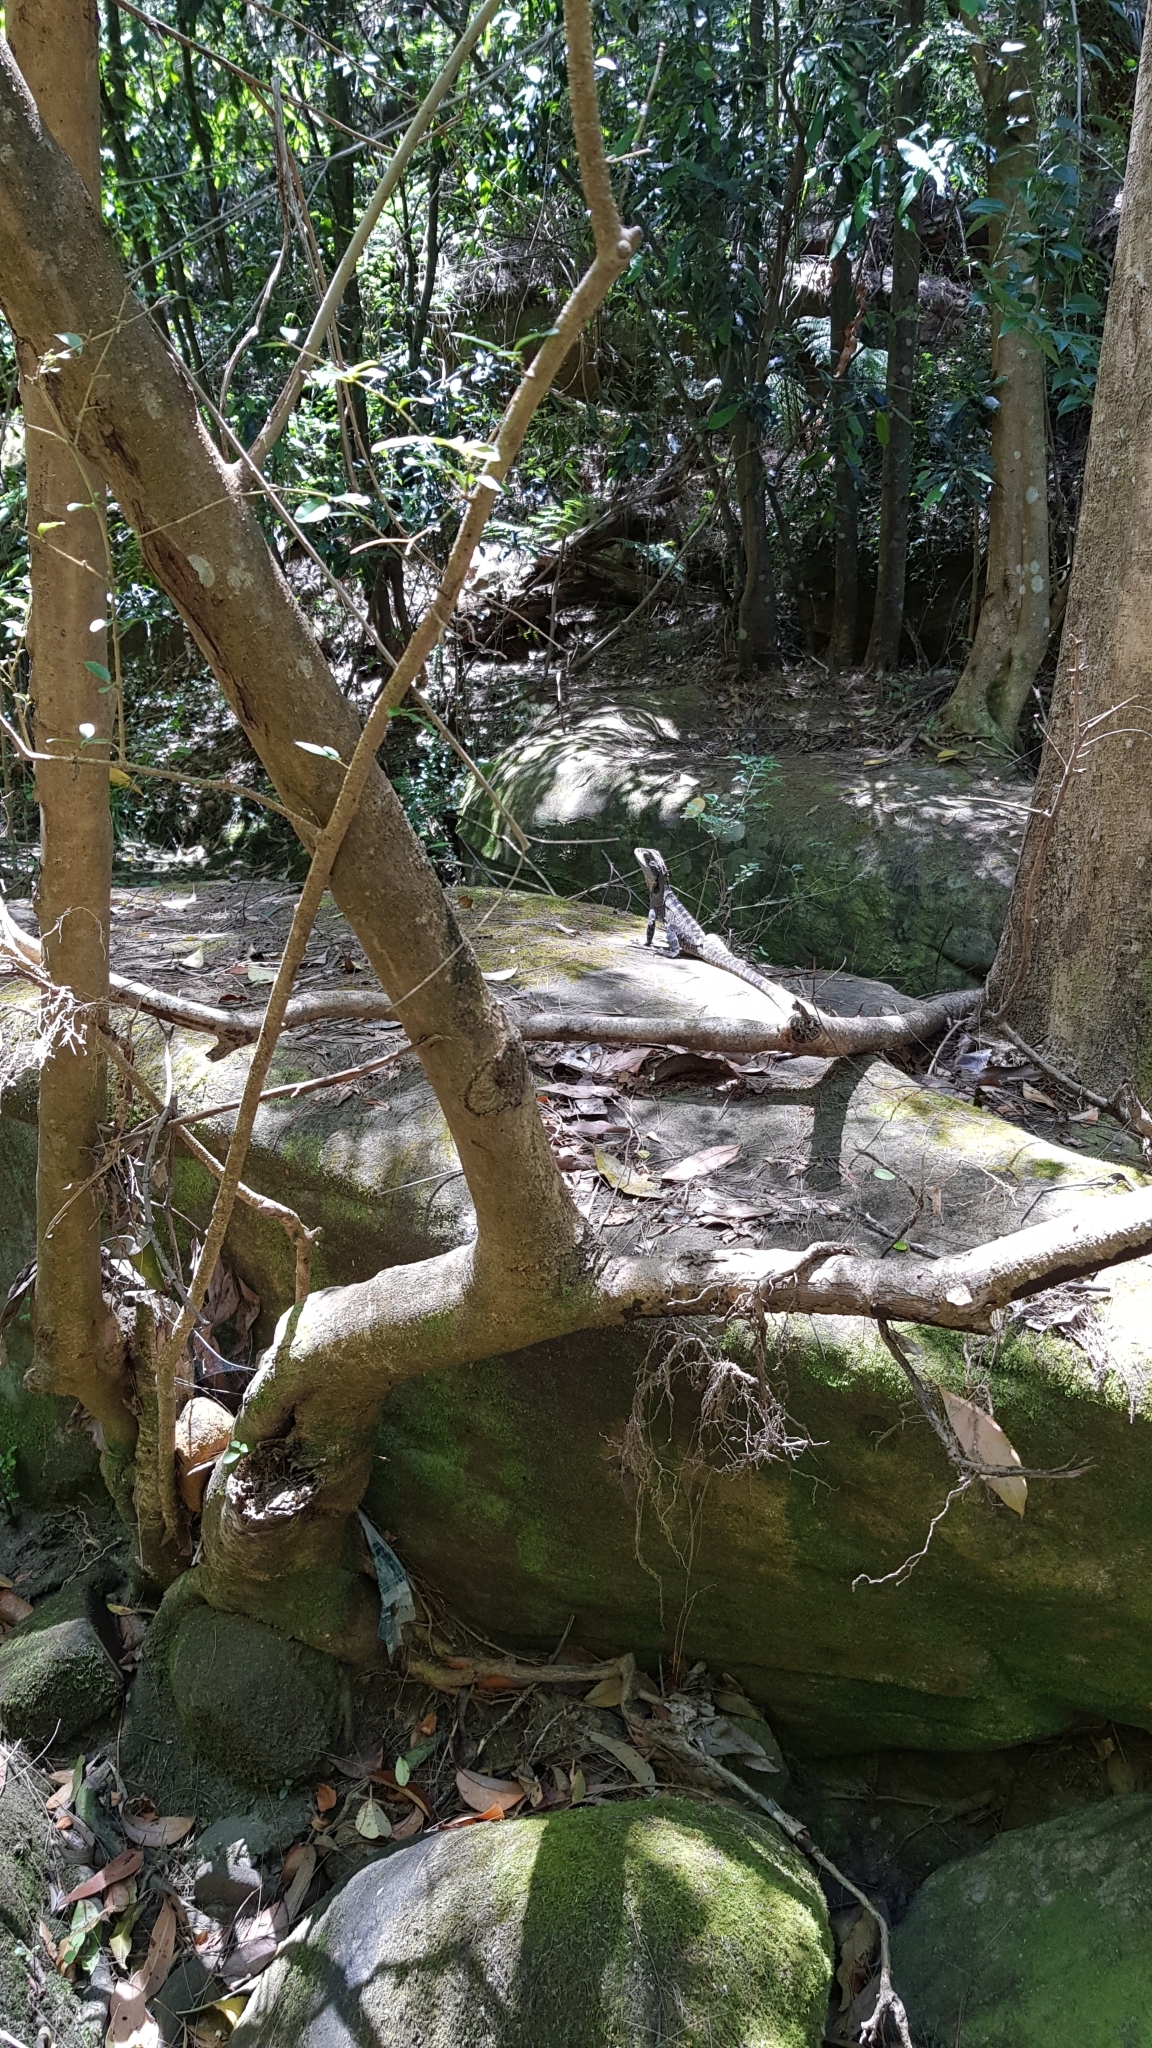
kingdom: Animalia
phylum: Chordata
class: Squamata
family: Agamidae
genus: Intellagama
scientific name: Intellagama lesueurii
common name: Eastern water dragon
